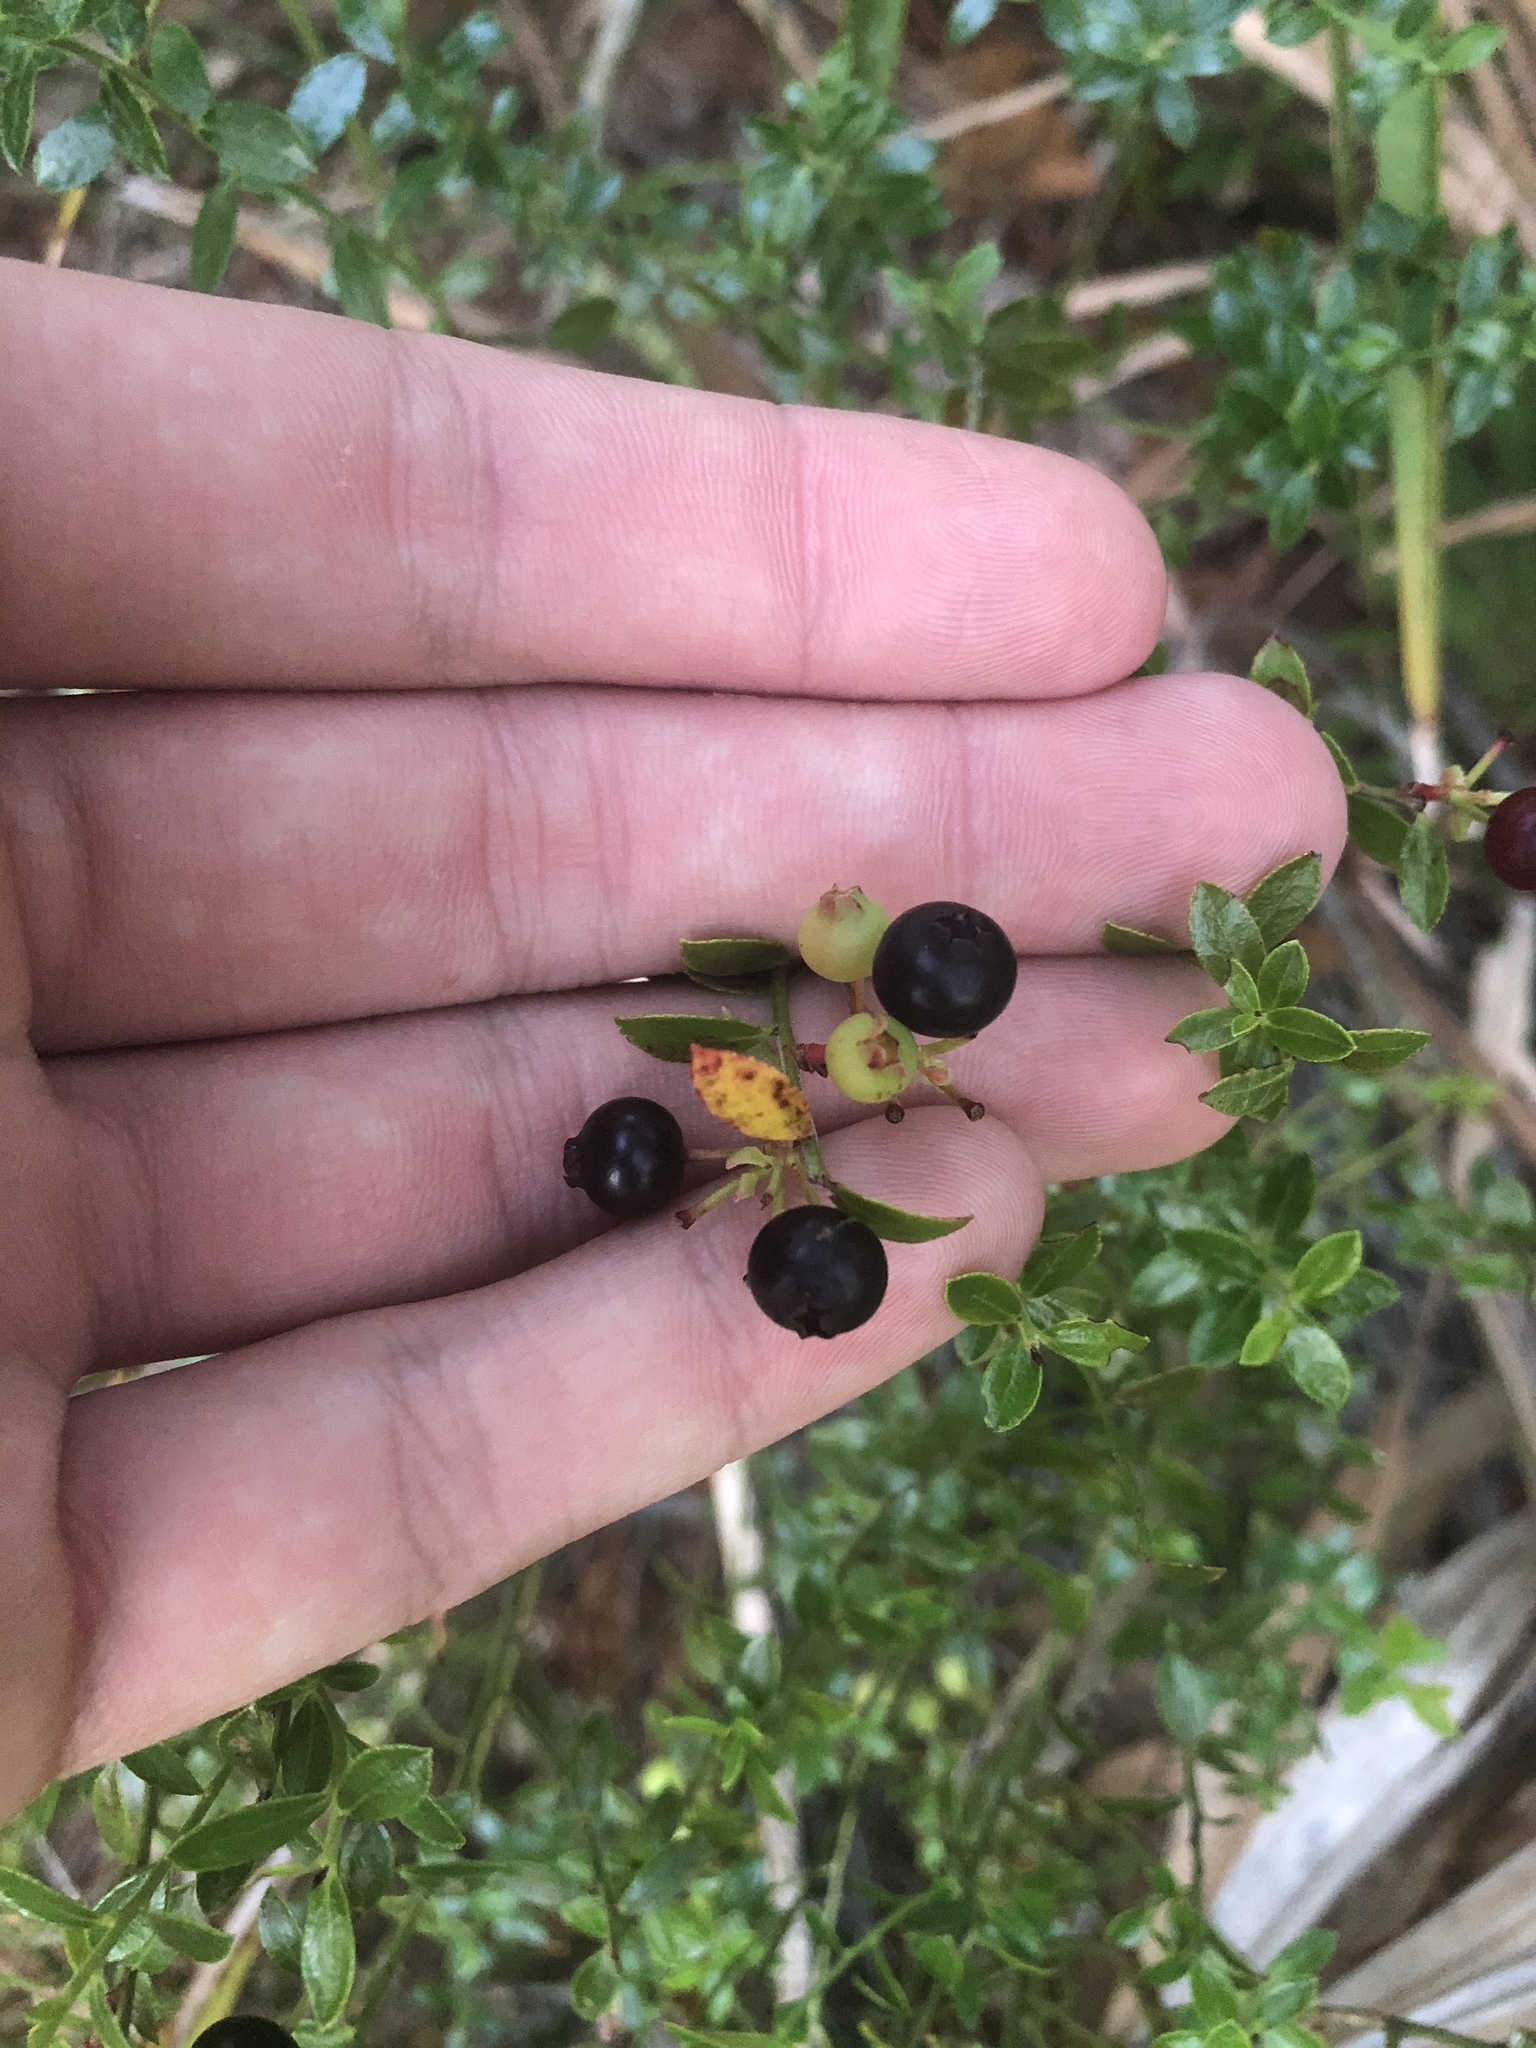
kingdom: Plantae
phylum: Tracheophyta
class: Magnoliopsida
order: Ericales
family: Ericaceae
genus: Vaccinium
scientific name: Vaccinium myrsinites
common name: Evergreen blueberry
